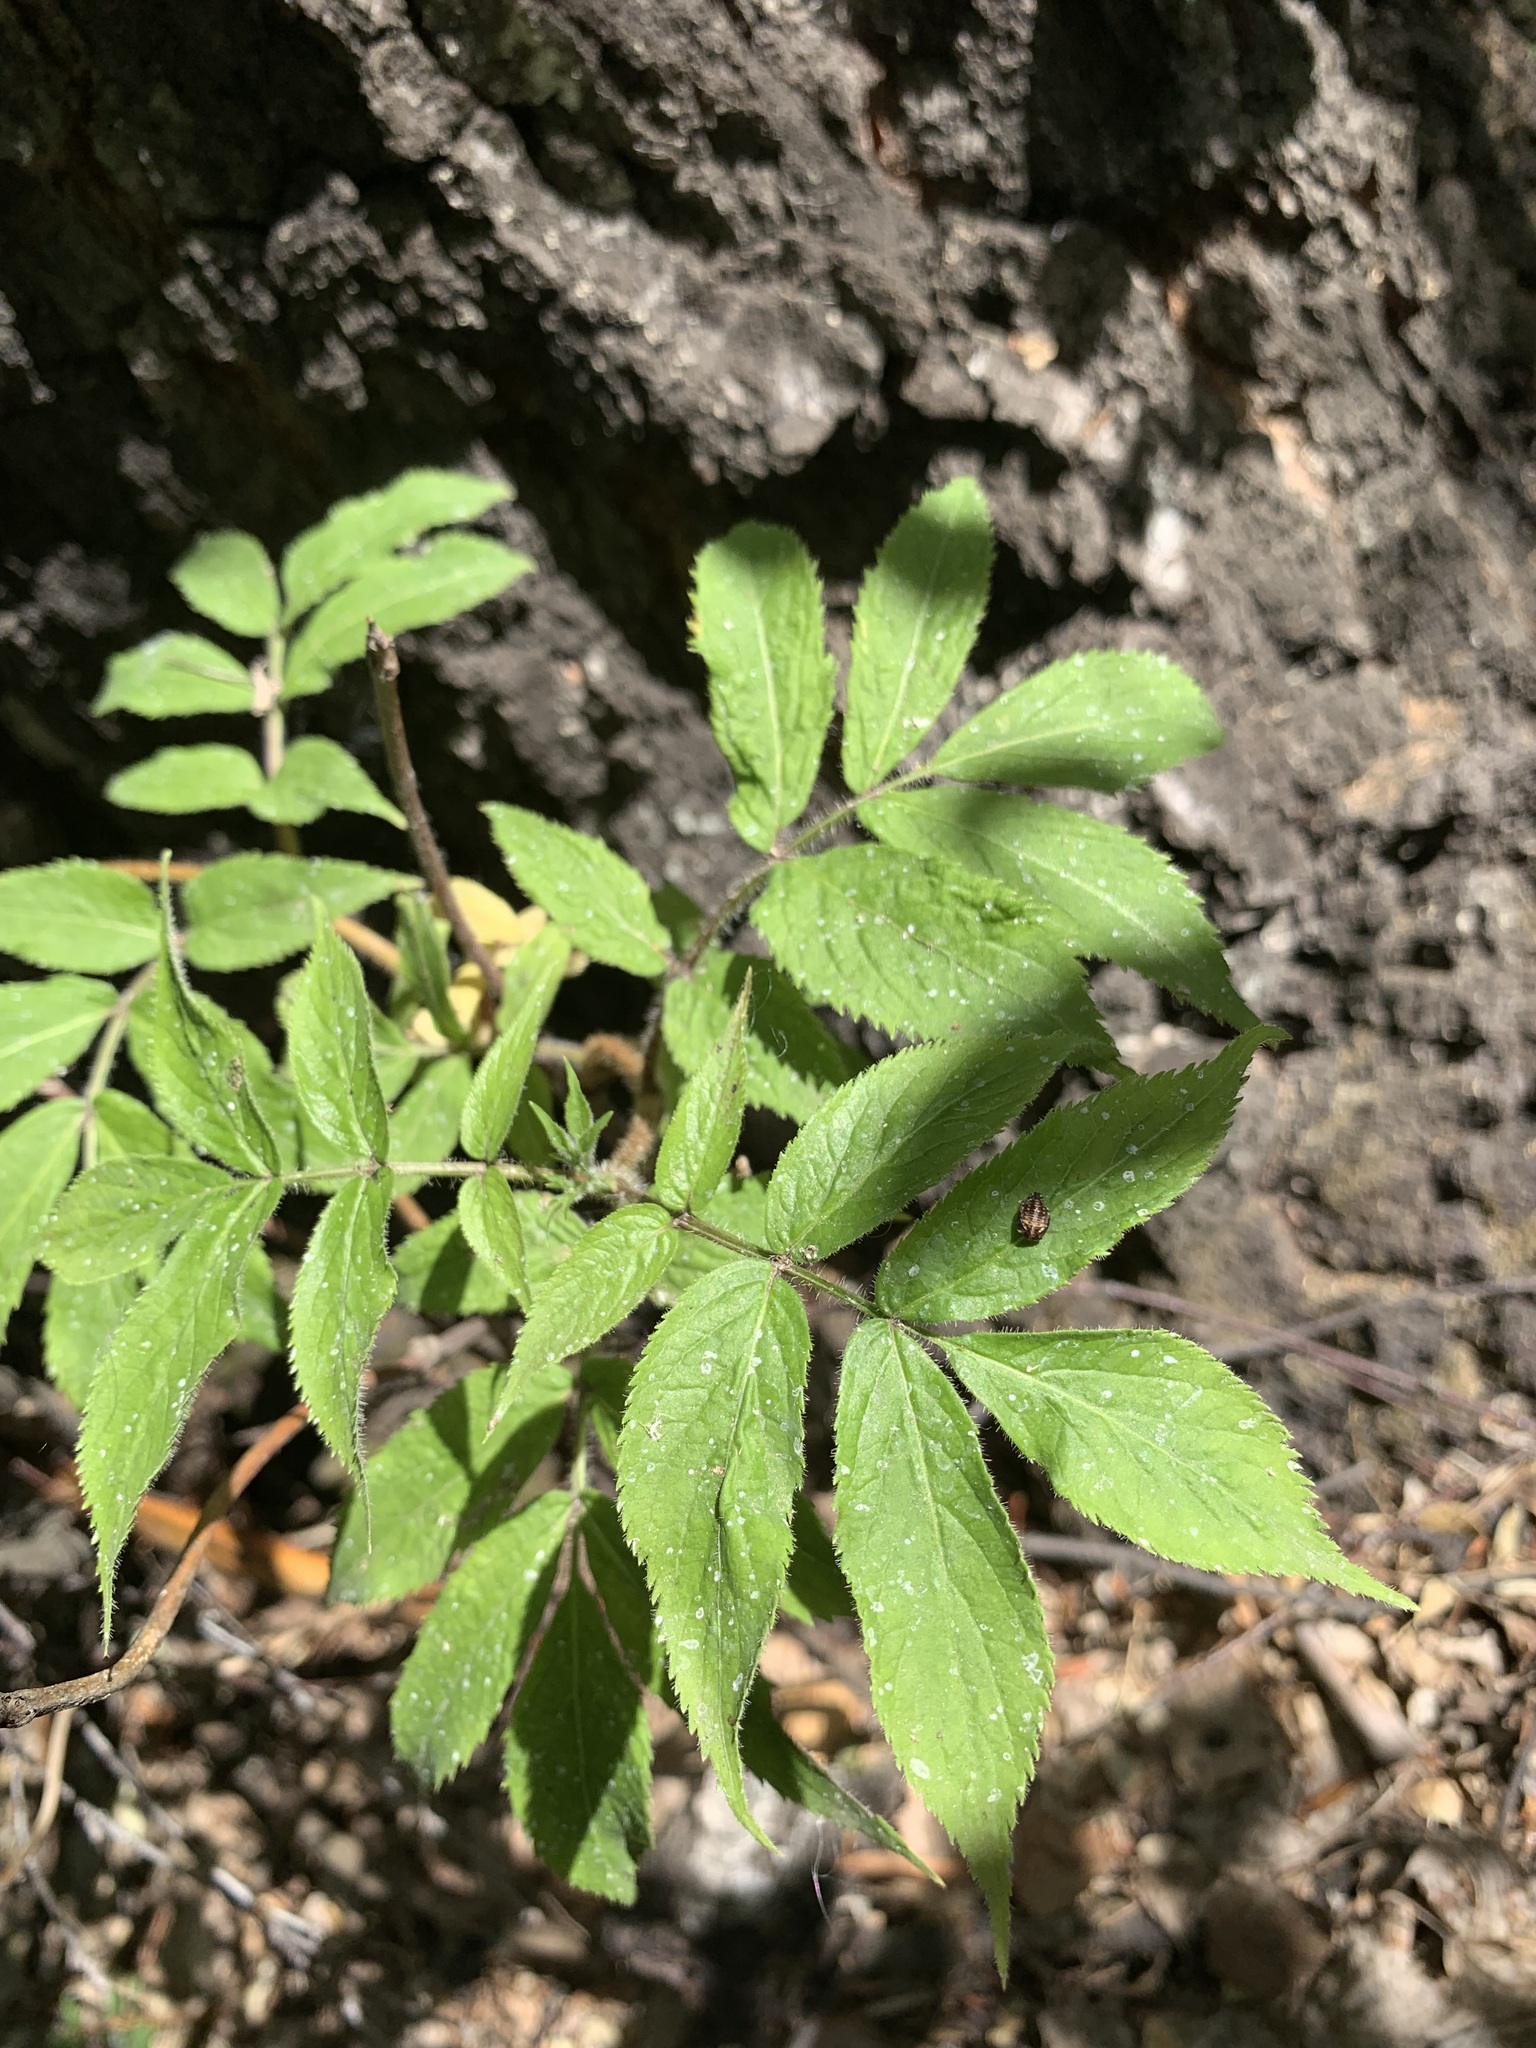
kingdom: Plantae
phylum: Tracheophyta
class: Magnoliopsida
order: Dipsacales
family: Viburnaceae
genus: Sambucus
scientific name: Sambucus sibirica
